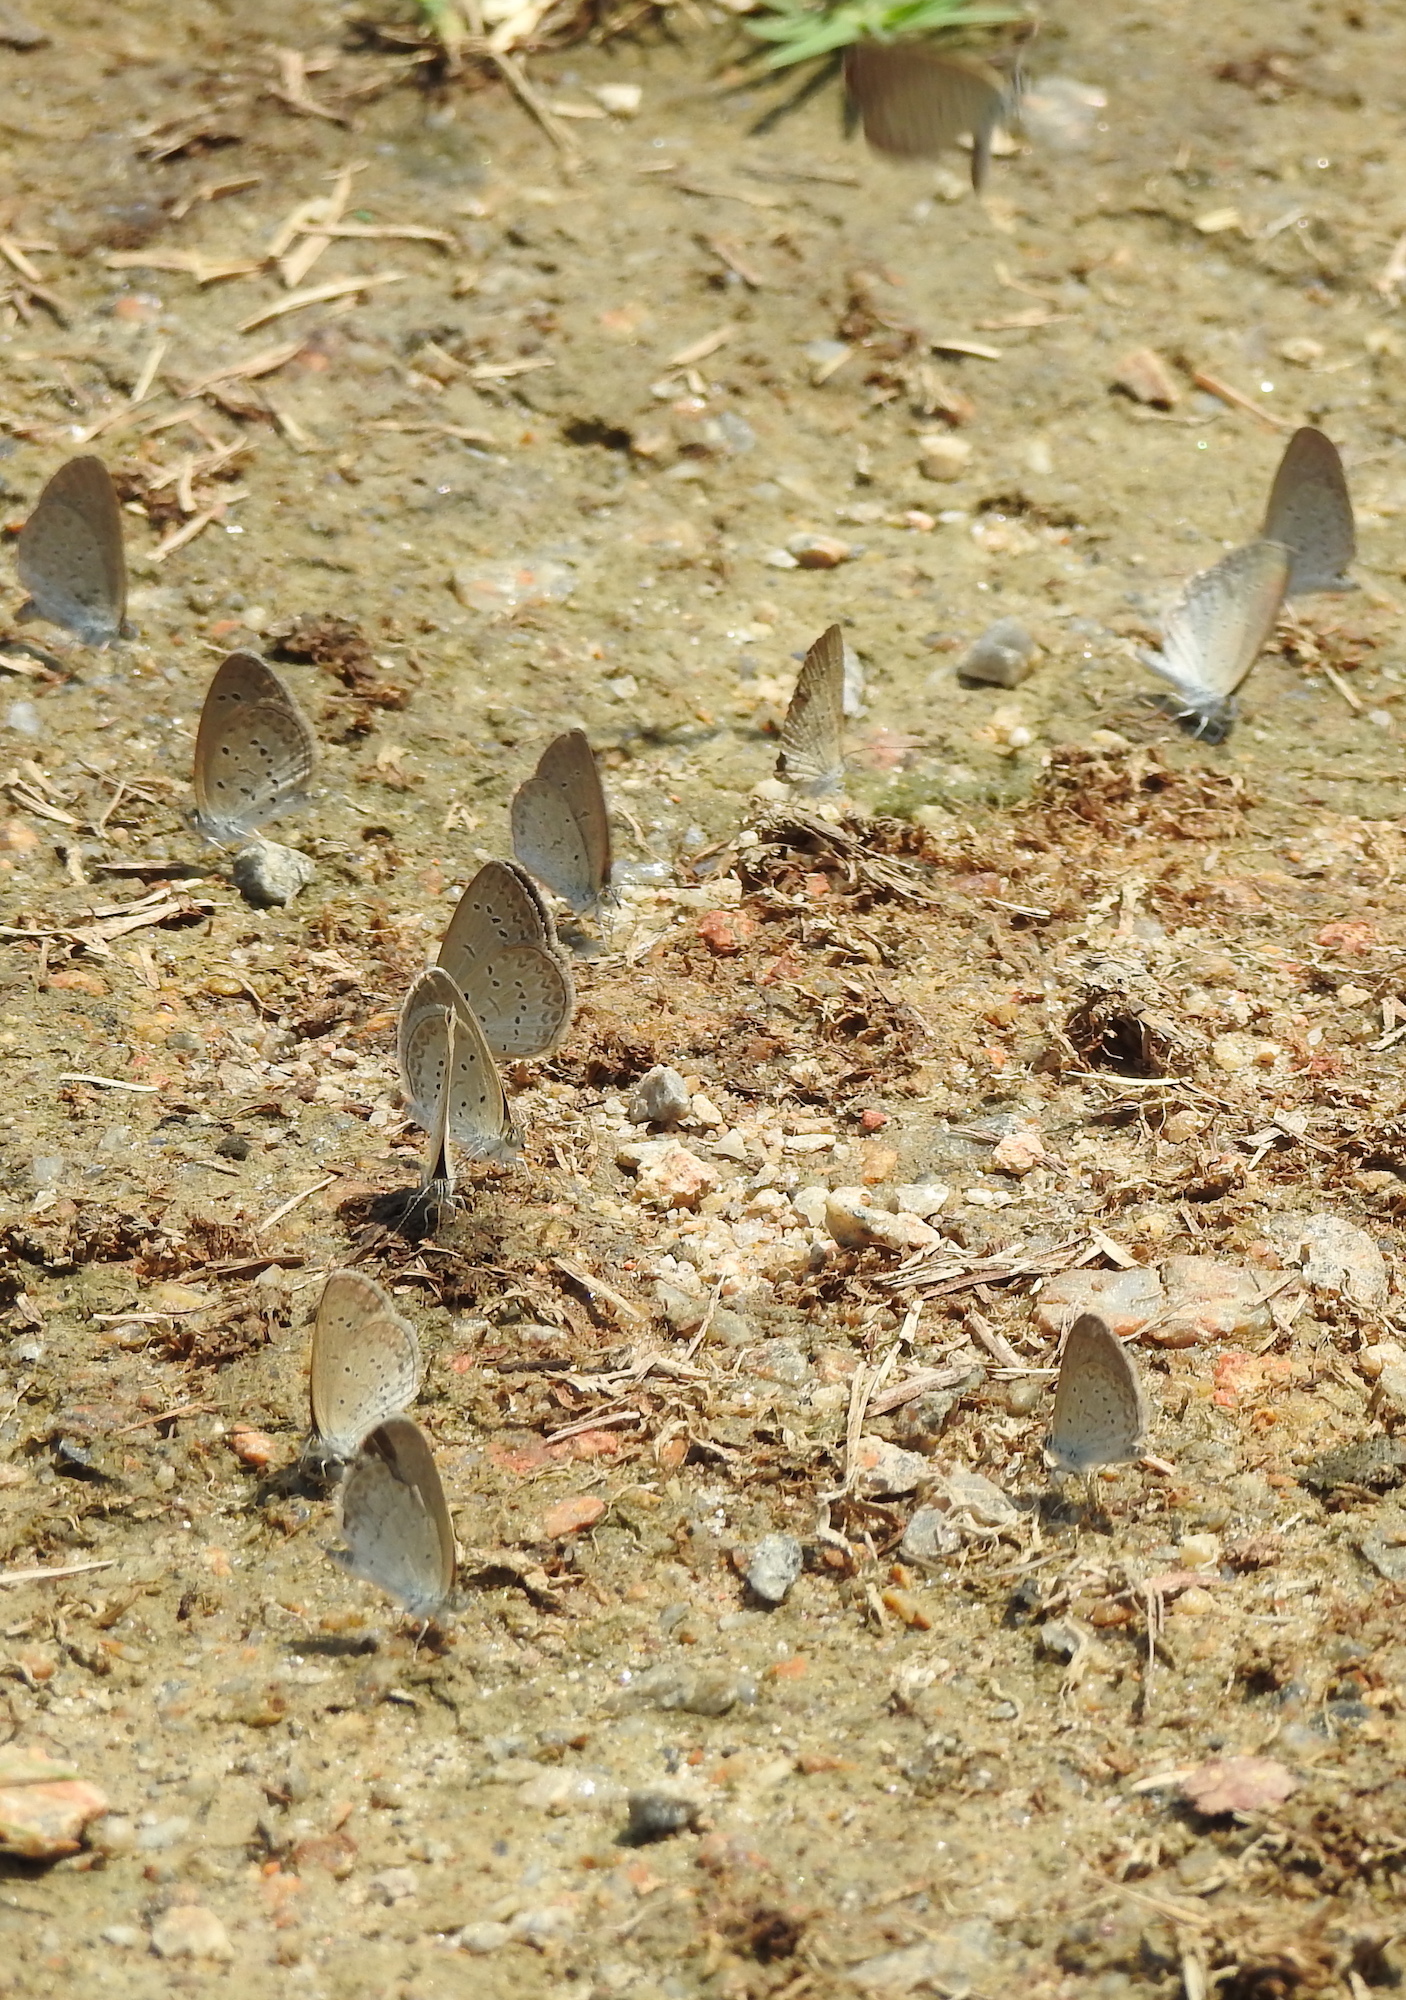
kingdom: Animalia
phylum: Arthropoda
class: Insecta
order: Lepidoptera
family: Lycaenidae
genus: Zizina
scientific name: Zizina otis
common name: Lesser grass blue
